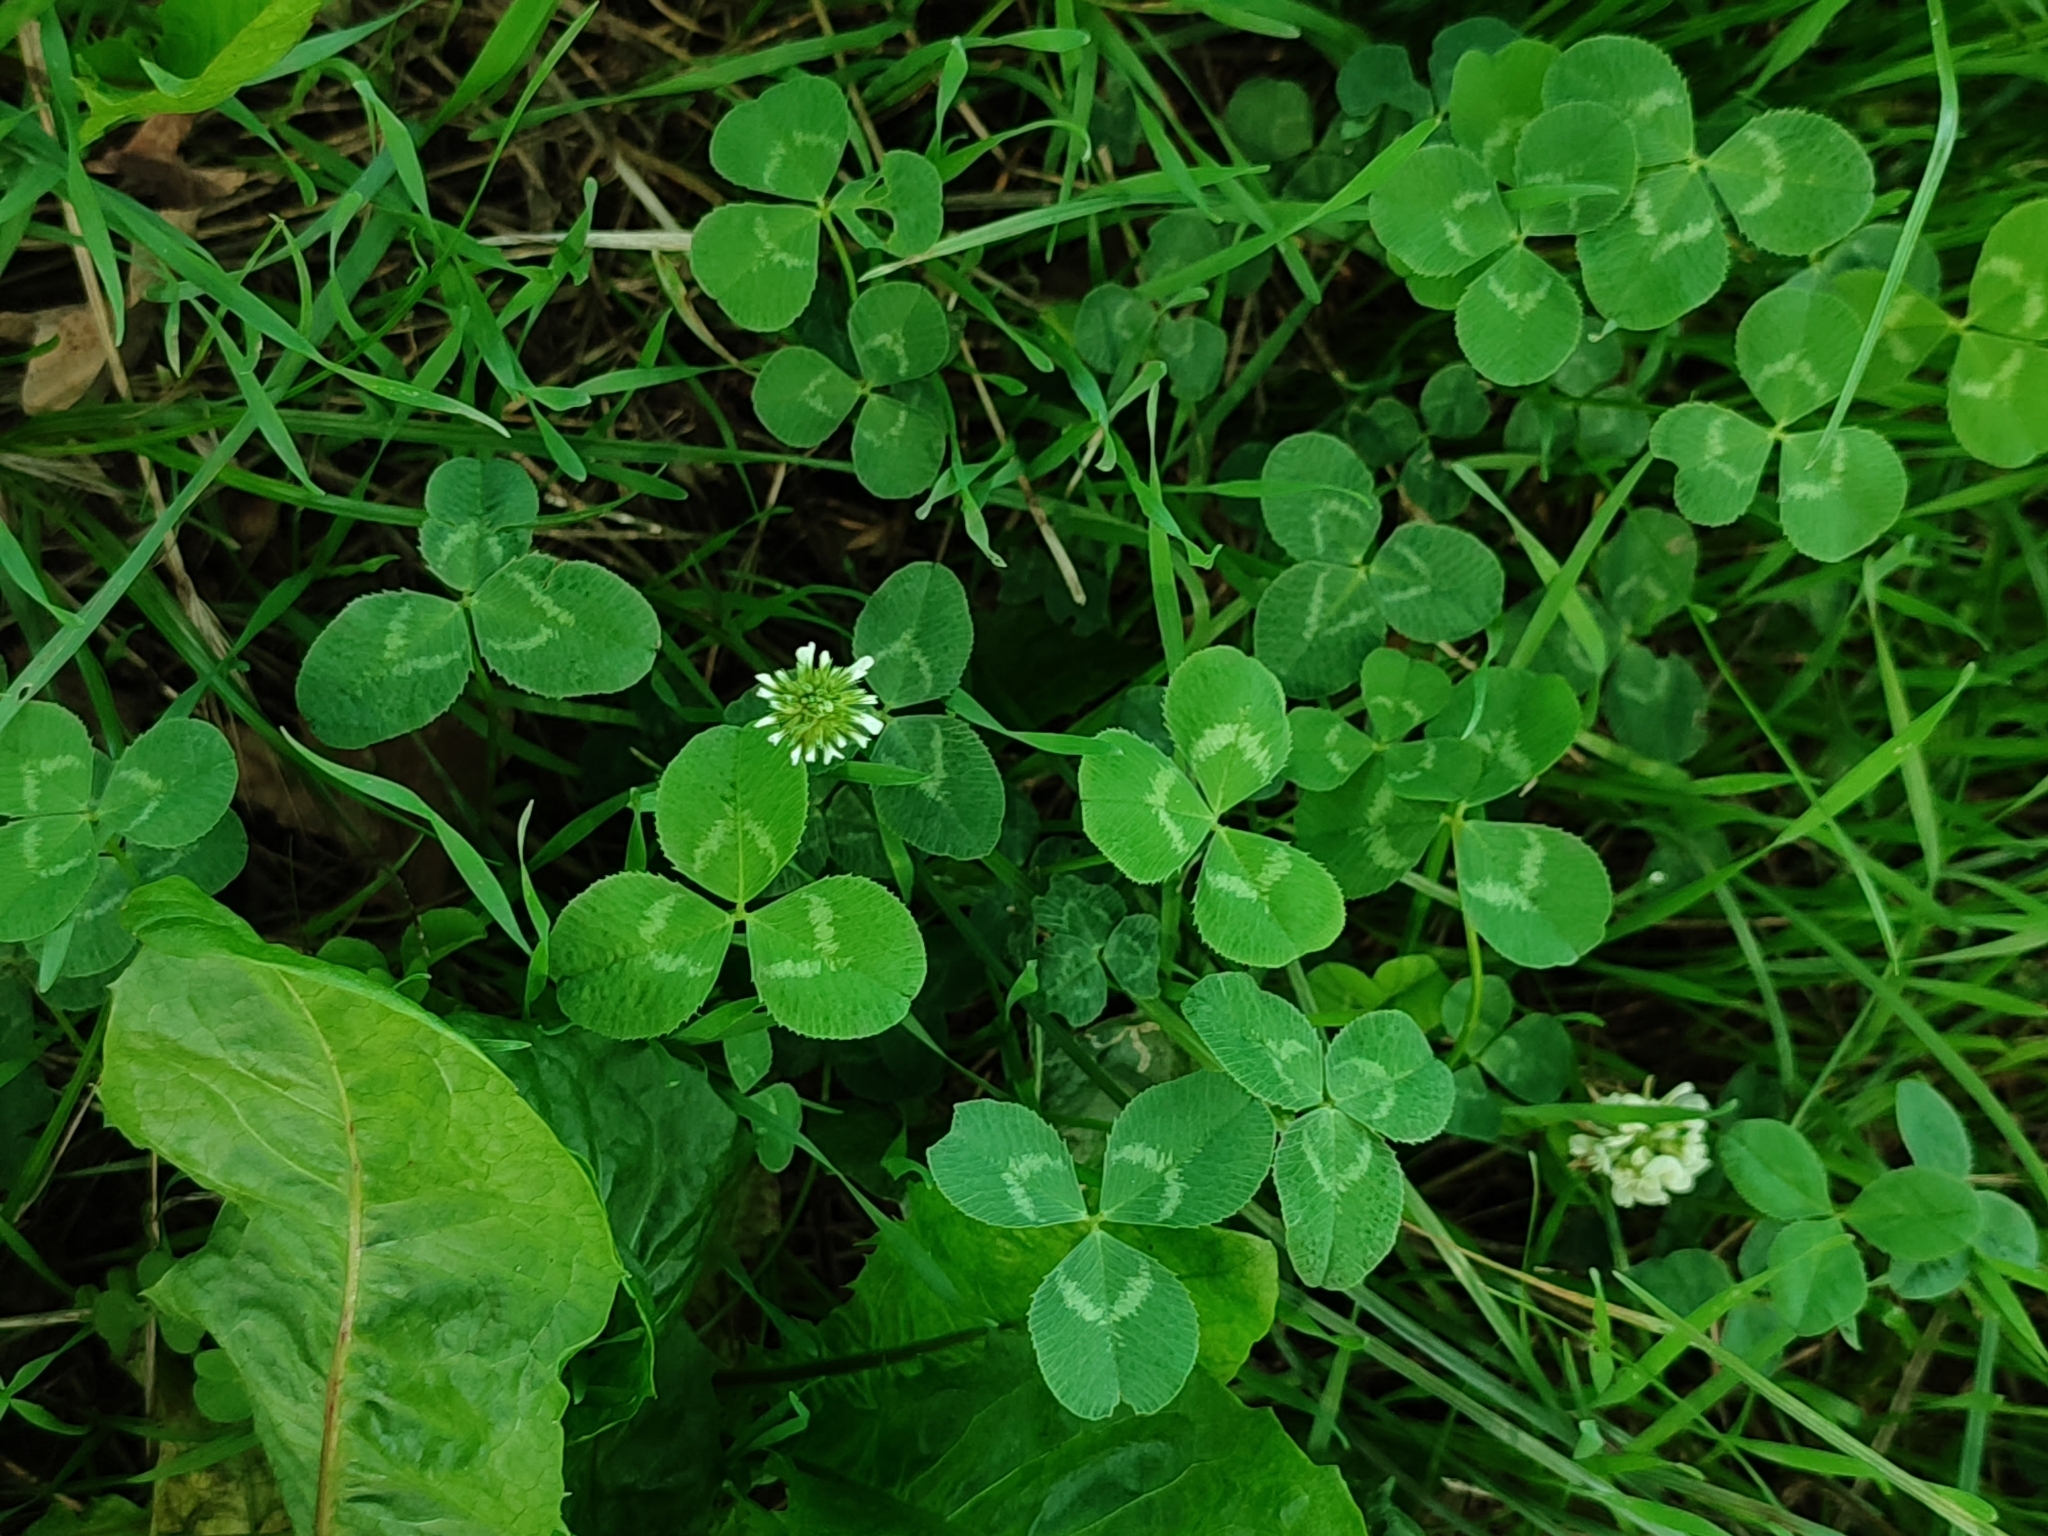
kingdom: Plantae
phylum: Tracheophyta
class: Magnoliopsida
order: Fabales
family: Fabaceae
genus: Trifolium
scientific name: Trifolium repens
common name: White clover
